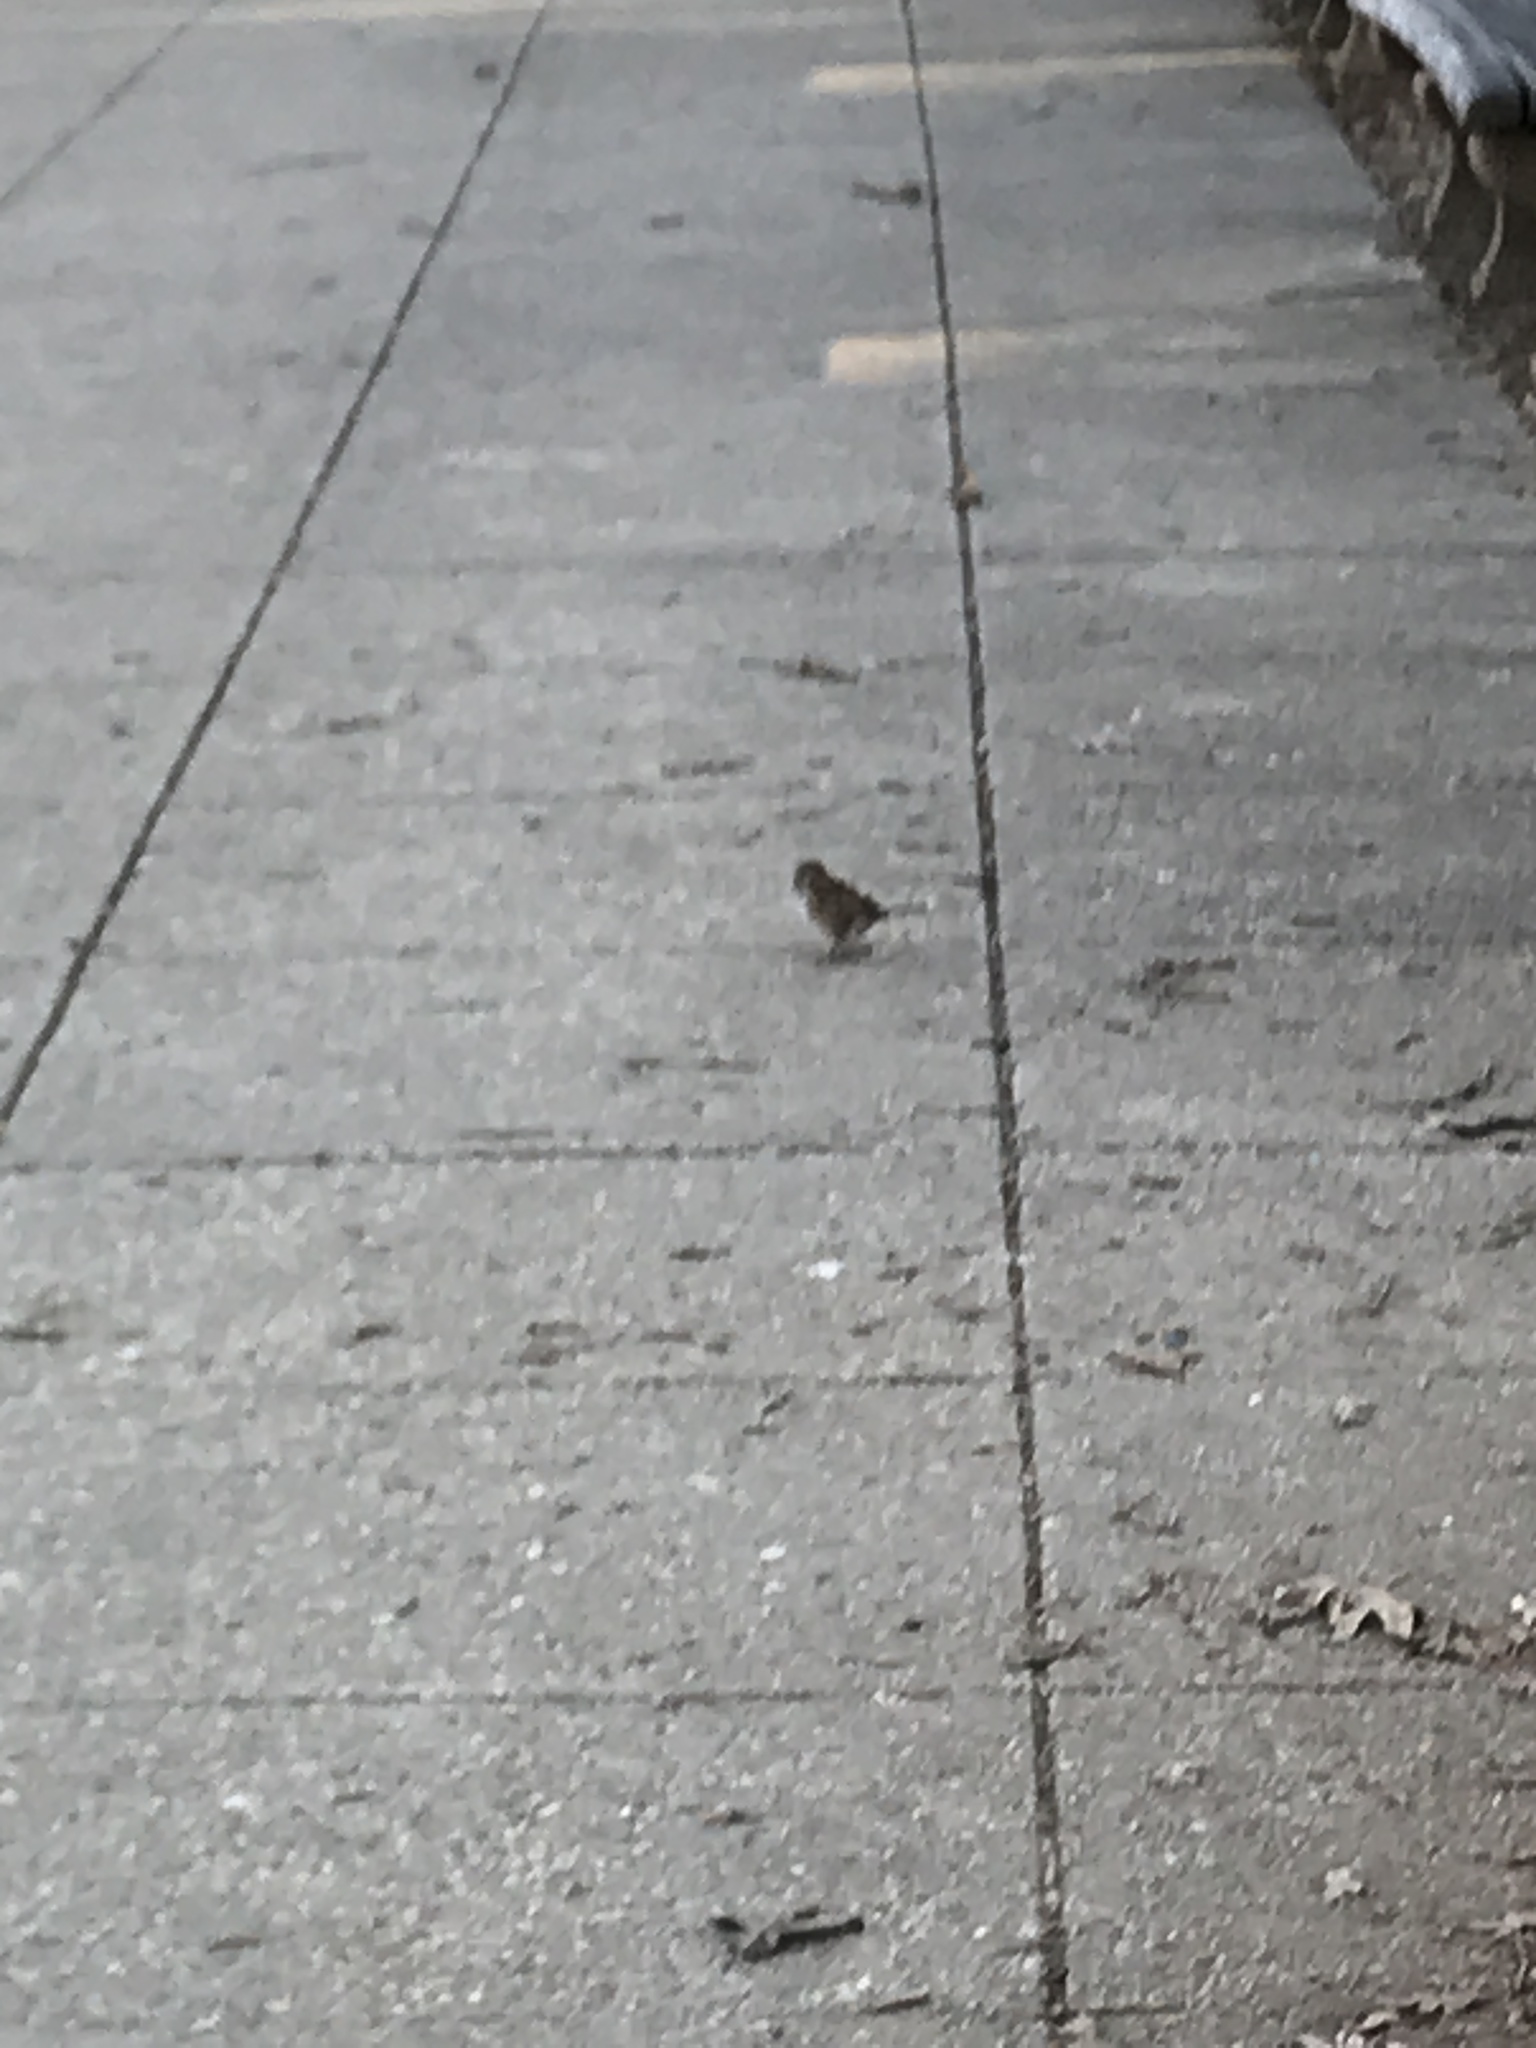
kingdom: Animalia
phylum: Chordata
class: Aves
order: Passeriformes
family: Passeridae
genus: Passer
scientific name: Passer domesticus
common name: House sparrow
